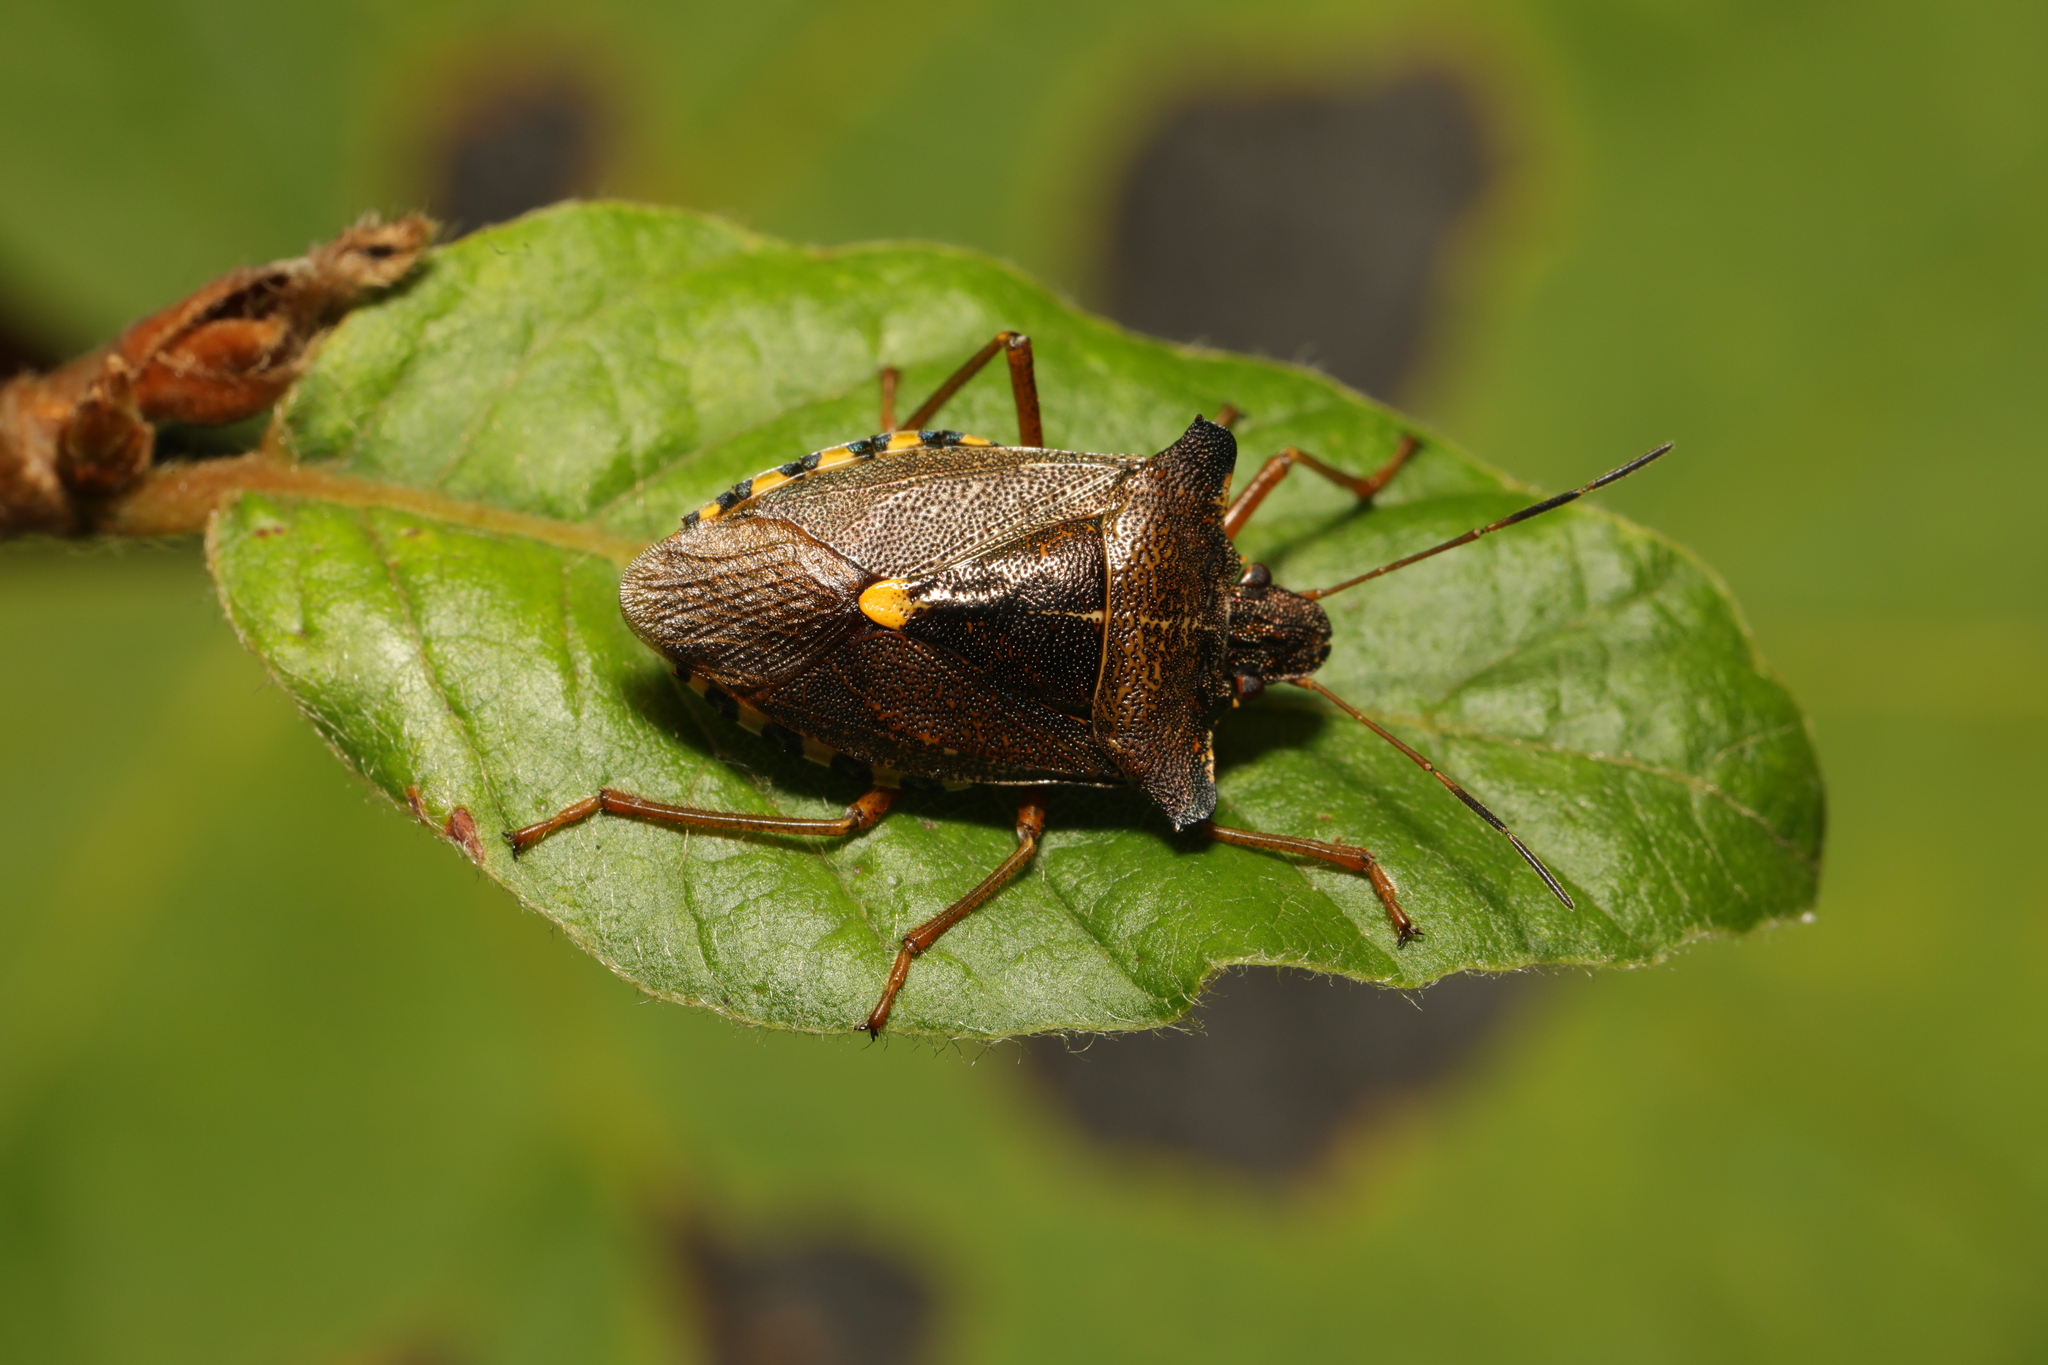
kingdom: Animalia
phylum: Arthropoda
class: Insecta
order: Hemiptera
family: Pentatomidae
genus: Pentatoma
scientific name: Pentatoma rufipes
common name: Forest bug
